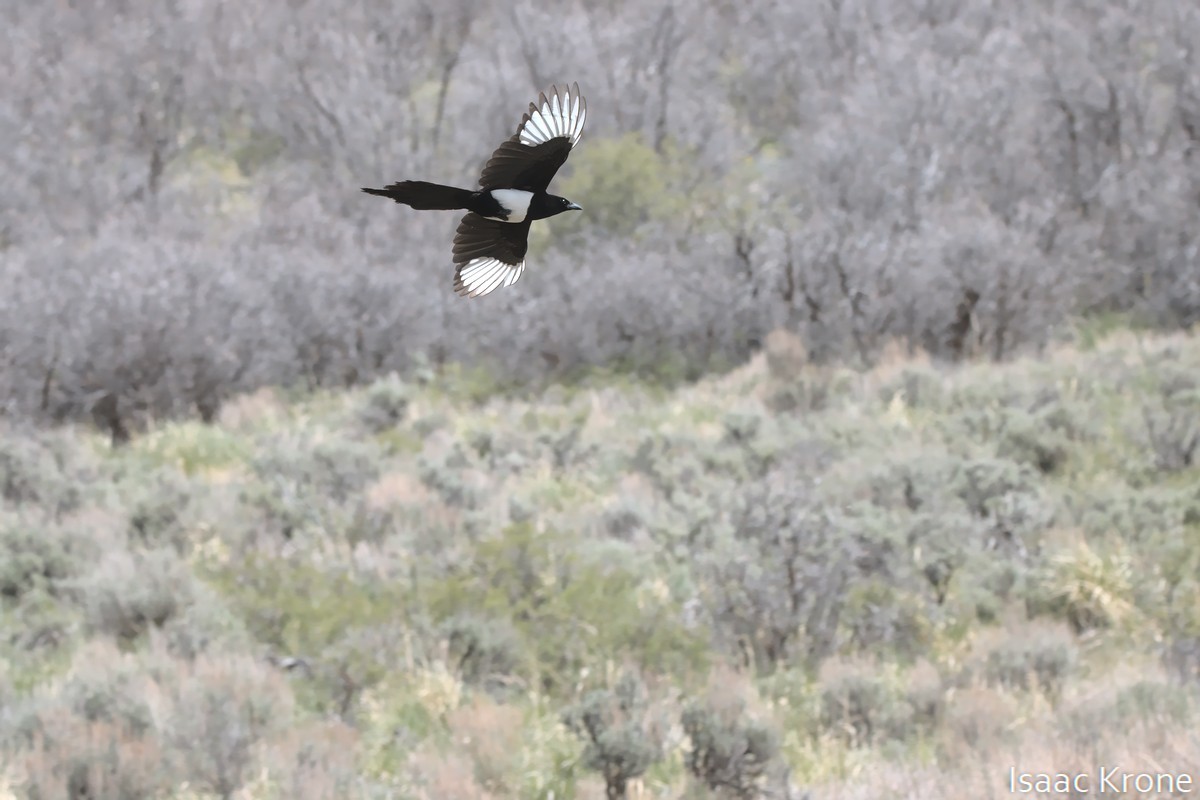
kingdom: Animalia
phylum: Chordata
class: Aves
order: Passeriformes
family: Corvidae
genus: Pica
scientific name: Pica hudsonia
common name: Black-billed magpie
